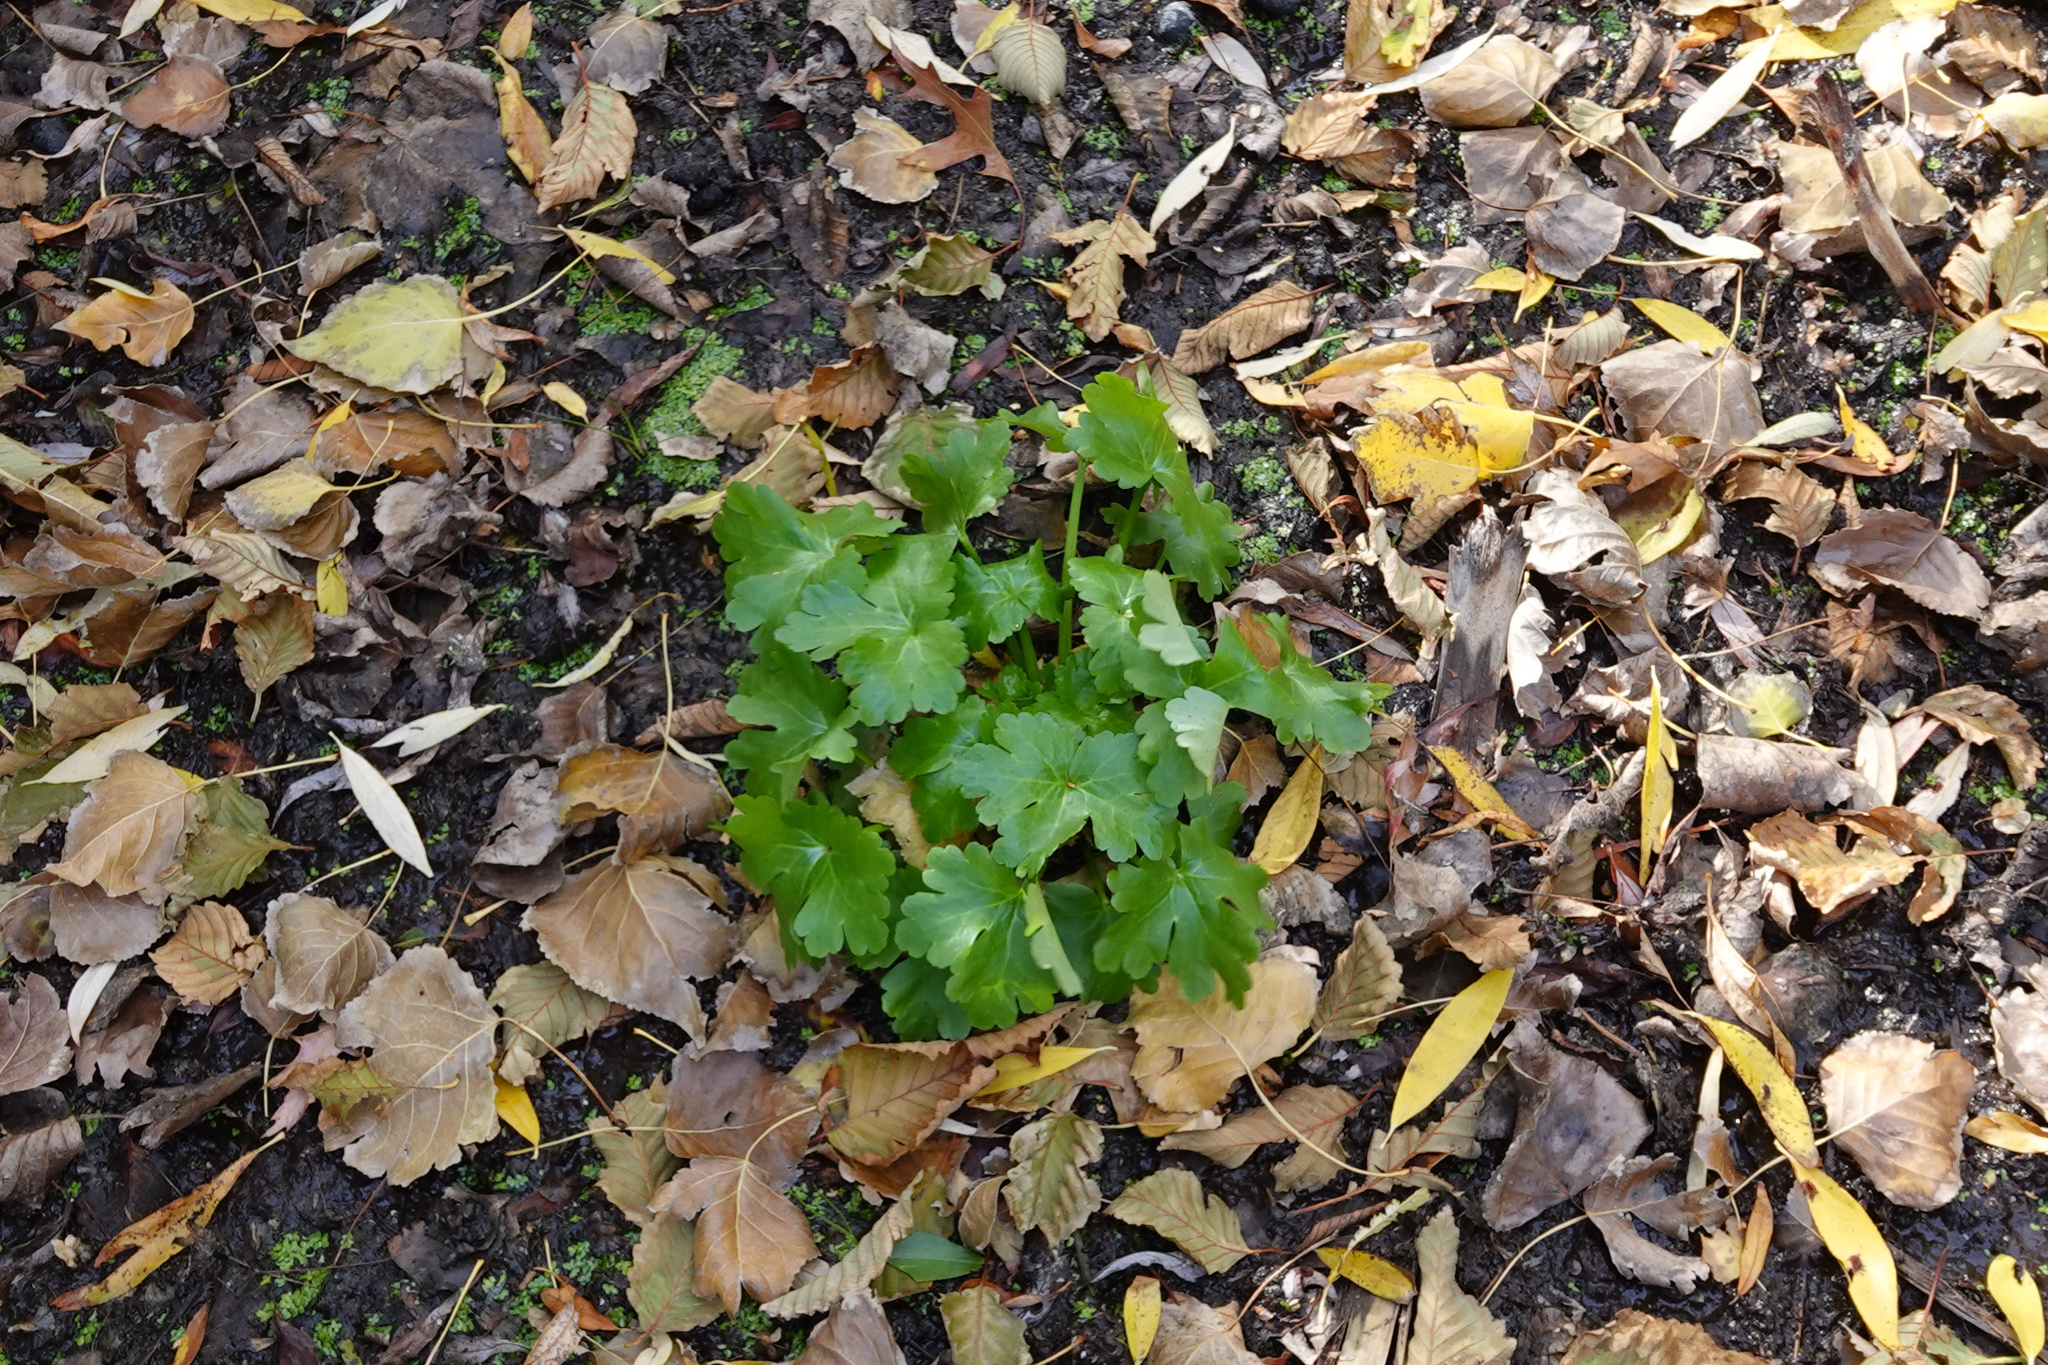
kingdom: Plantae
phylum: Tracheophyta
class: Magnoliopsida
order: Ranunculales
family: Ranunculaceae
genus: Ranunculus
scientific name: Ranunculus sceleratus
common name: Celery-leaved buttercup
